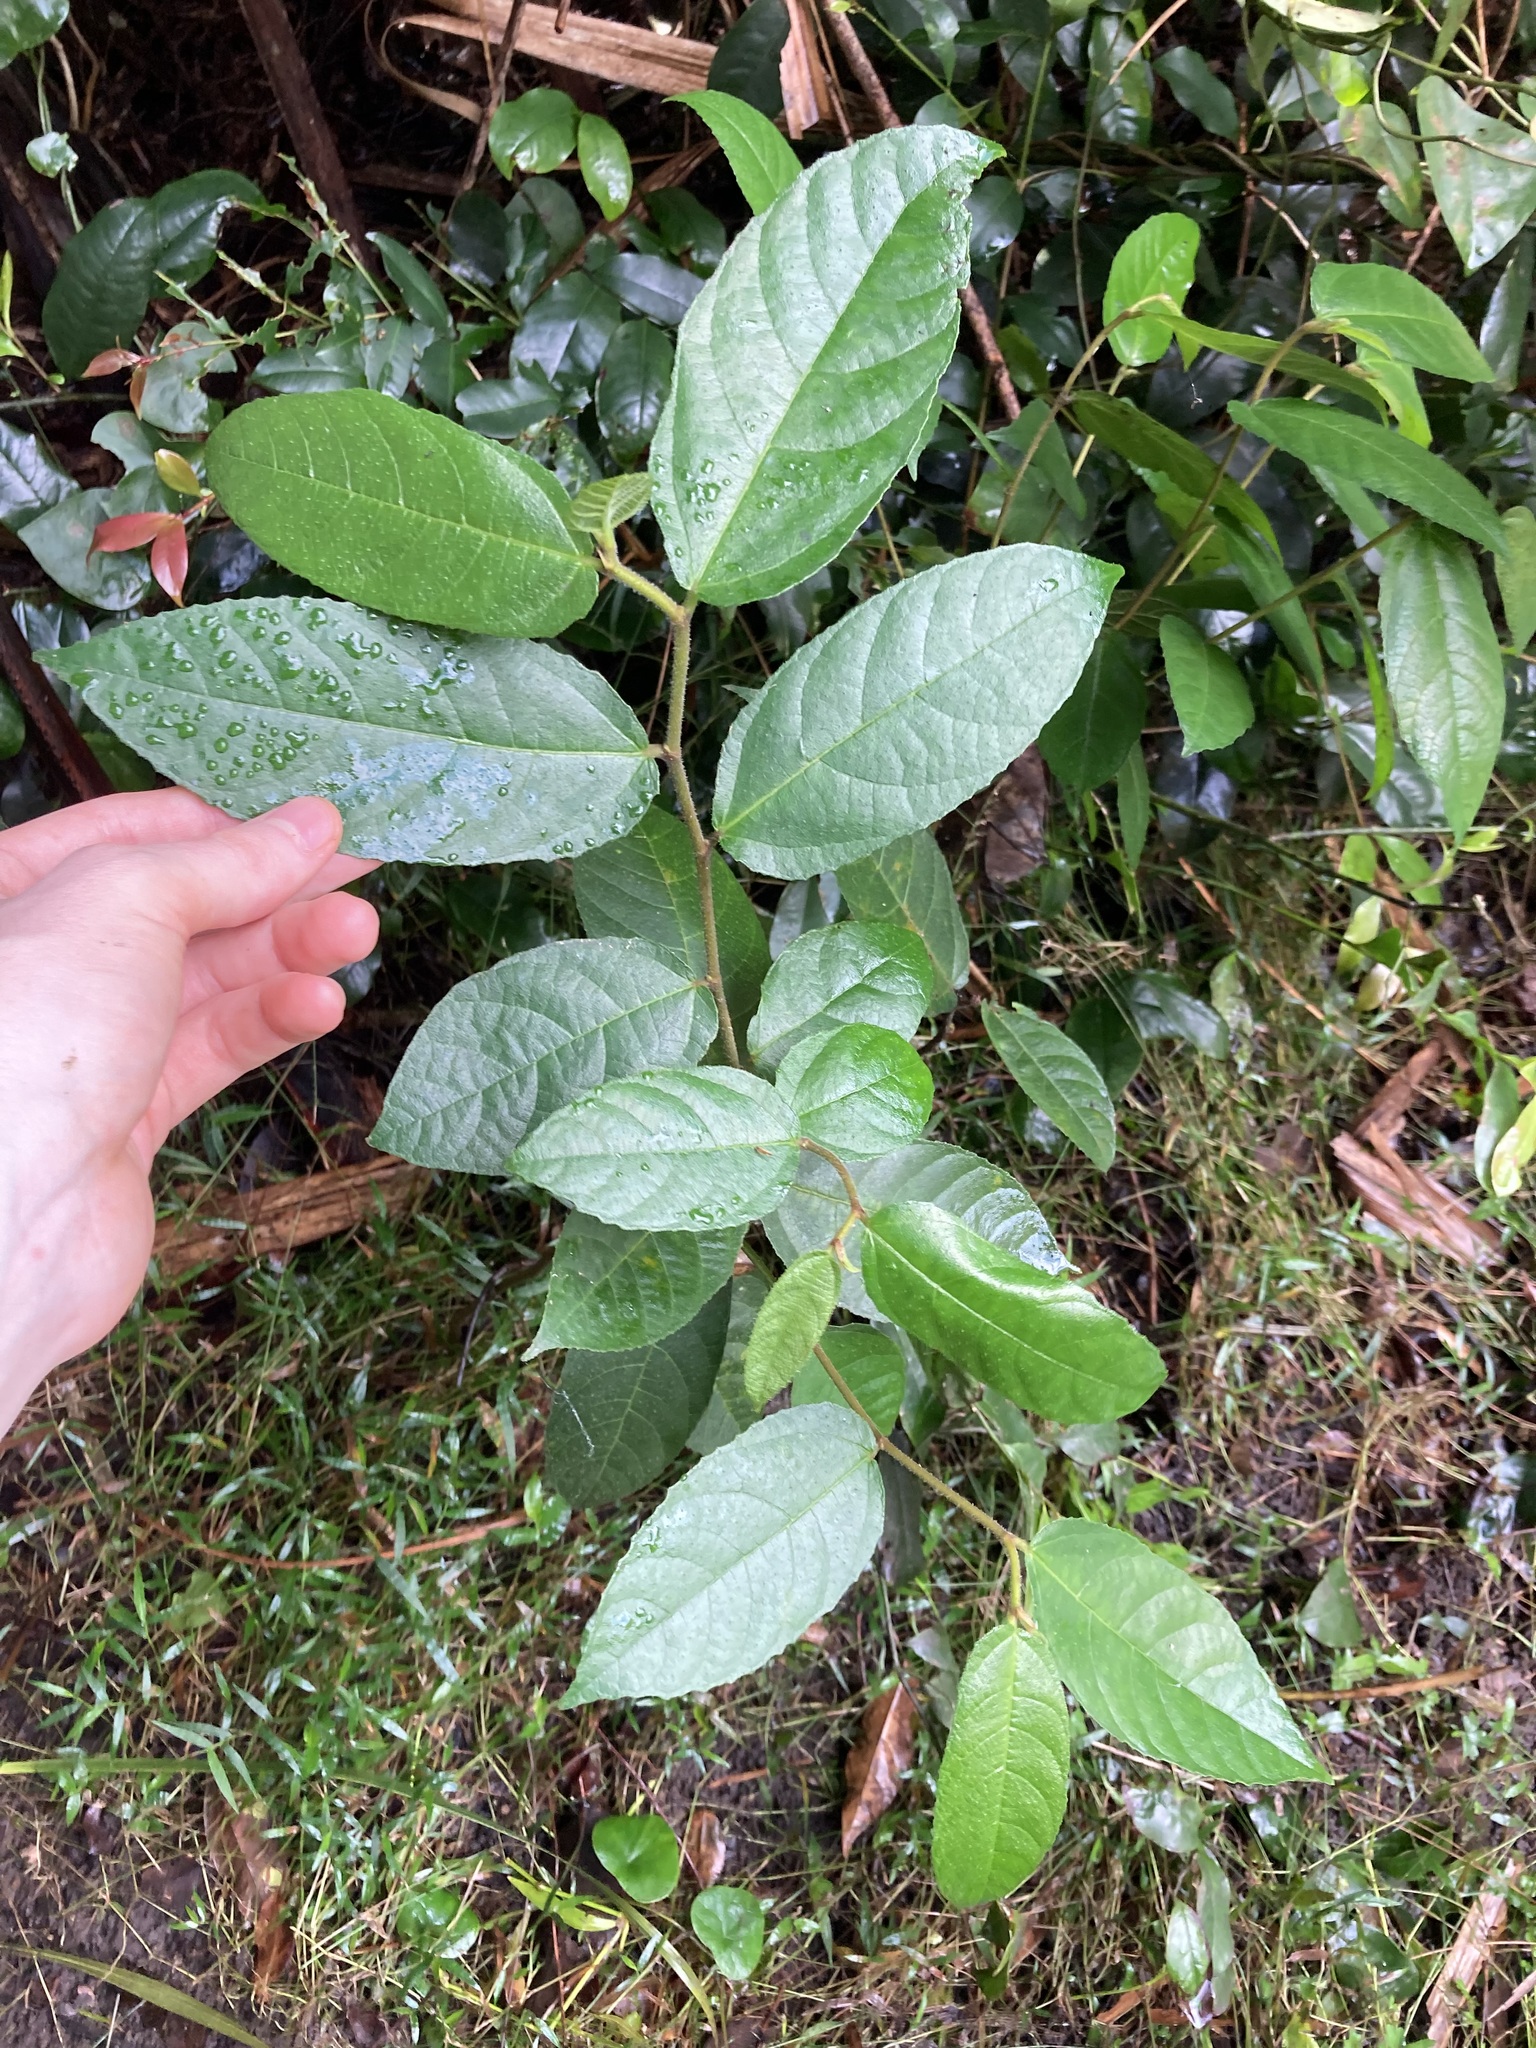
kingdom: Plantae
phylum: Tracheophyta
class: Magnoliopsida
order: Rosales
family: Moraceae
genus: Ficus
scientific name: Ficus coronata
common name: Creek sandpaper fig
